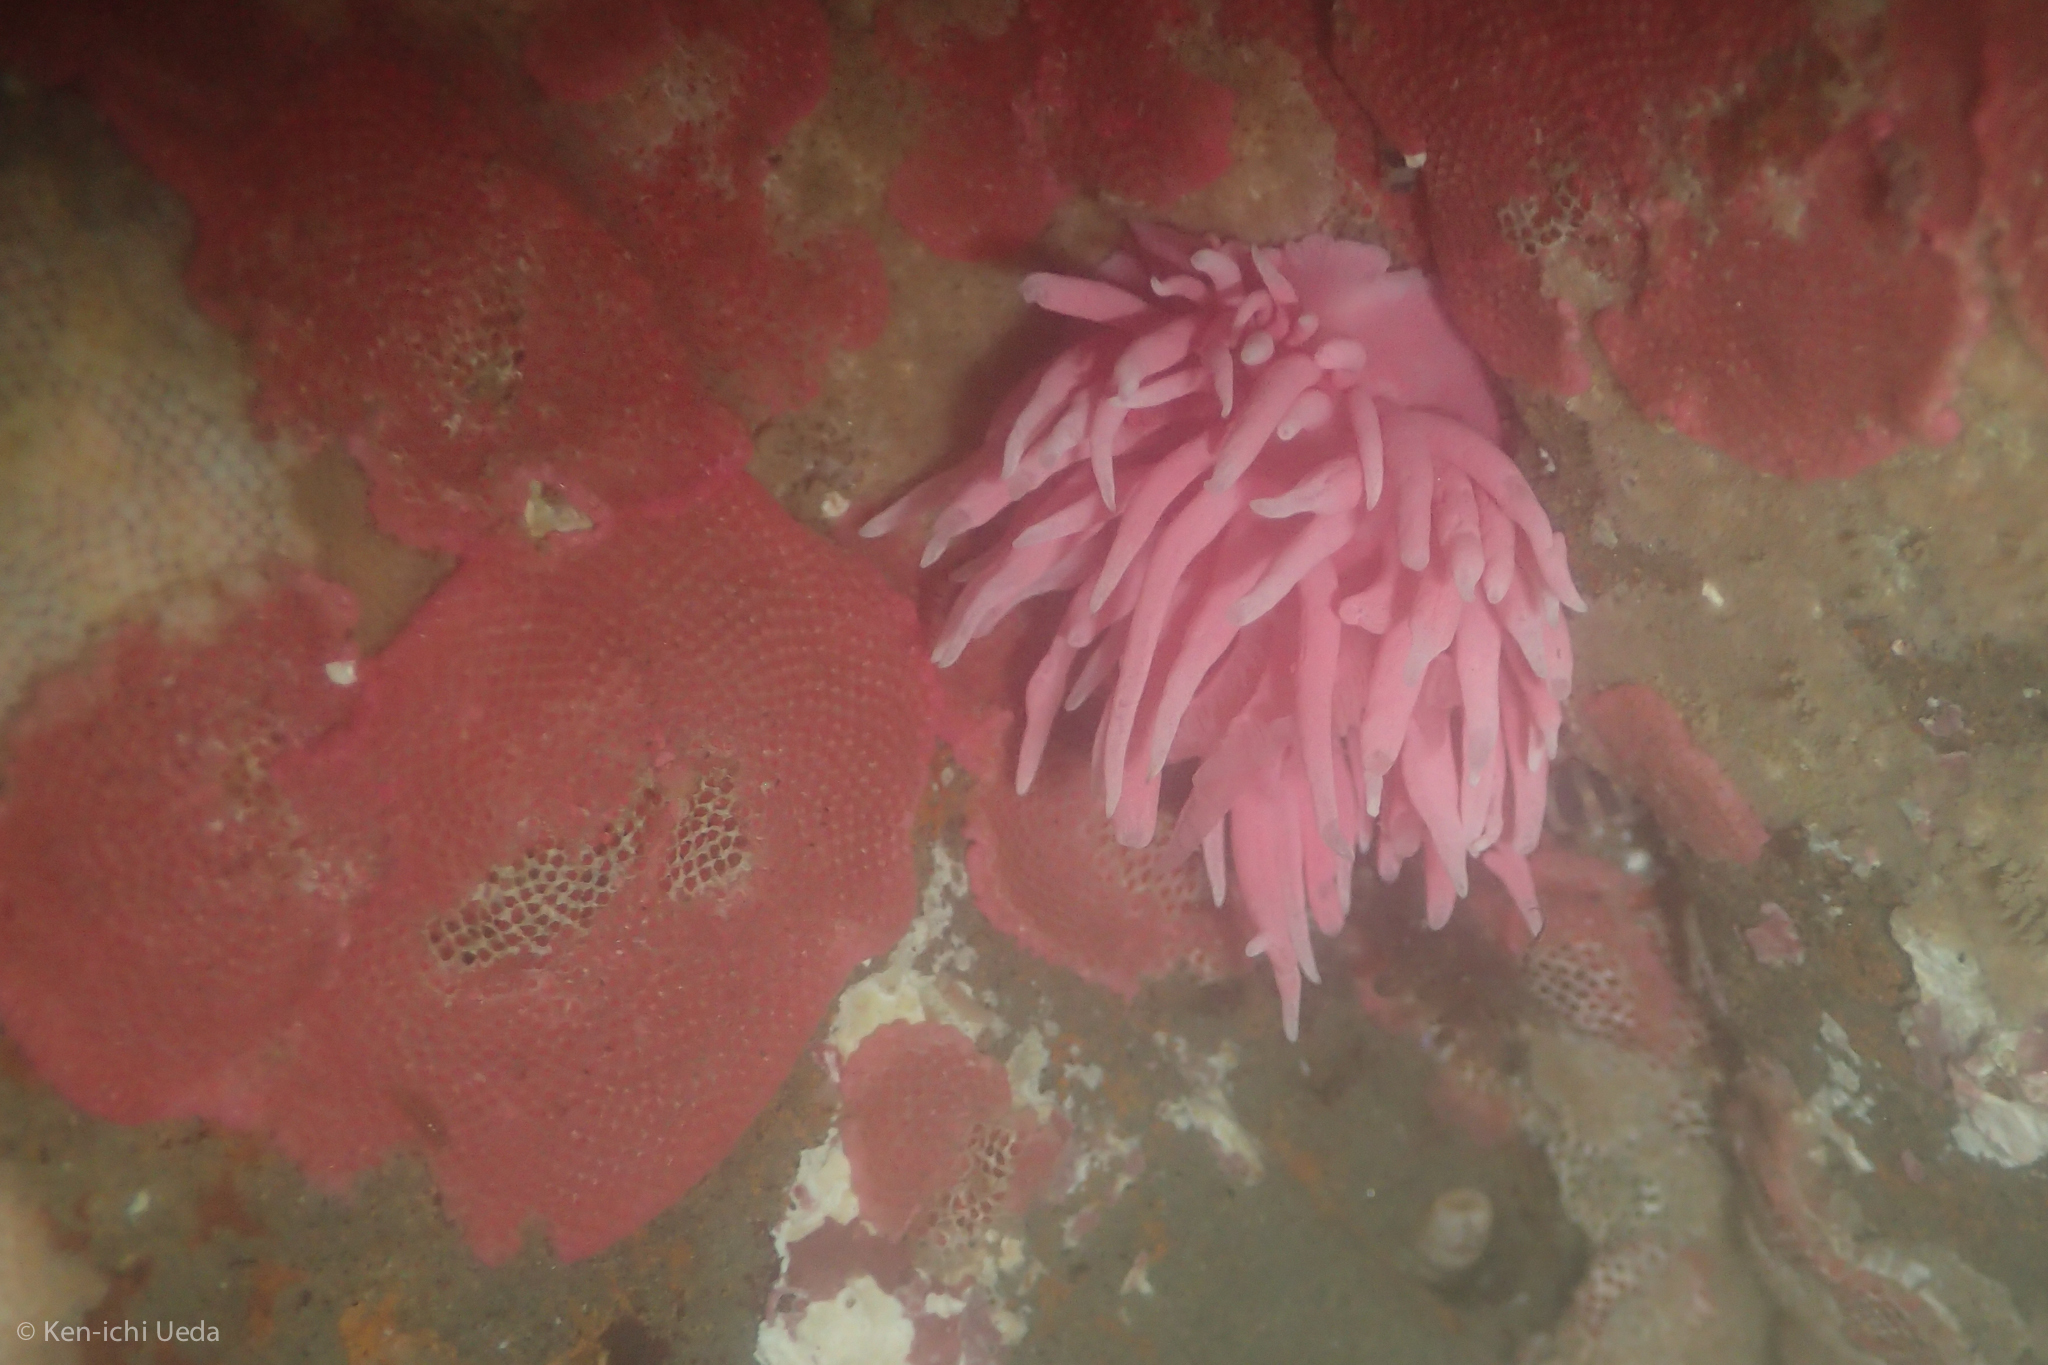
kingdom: Animalia
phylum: Mollusca
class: Gastropoda
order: Nudibranchia
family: Goniodorididae
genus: Okenia
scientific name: Okenia
